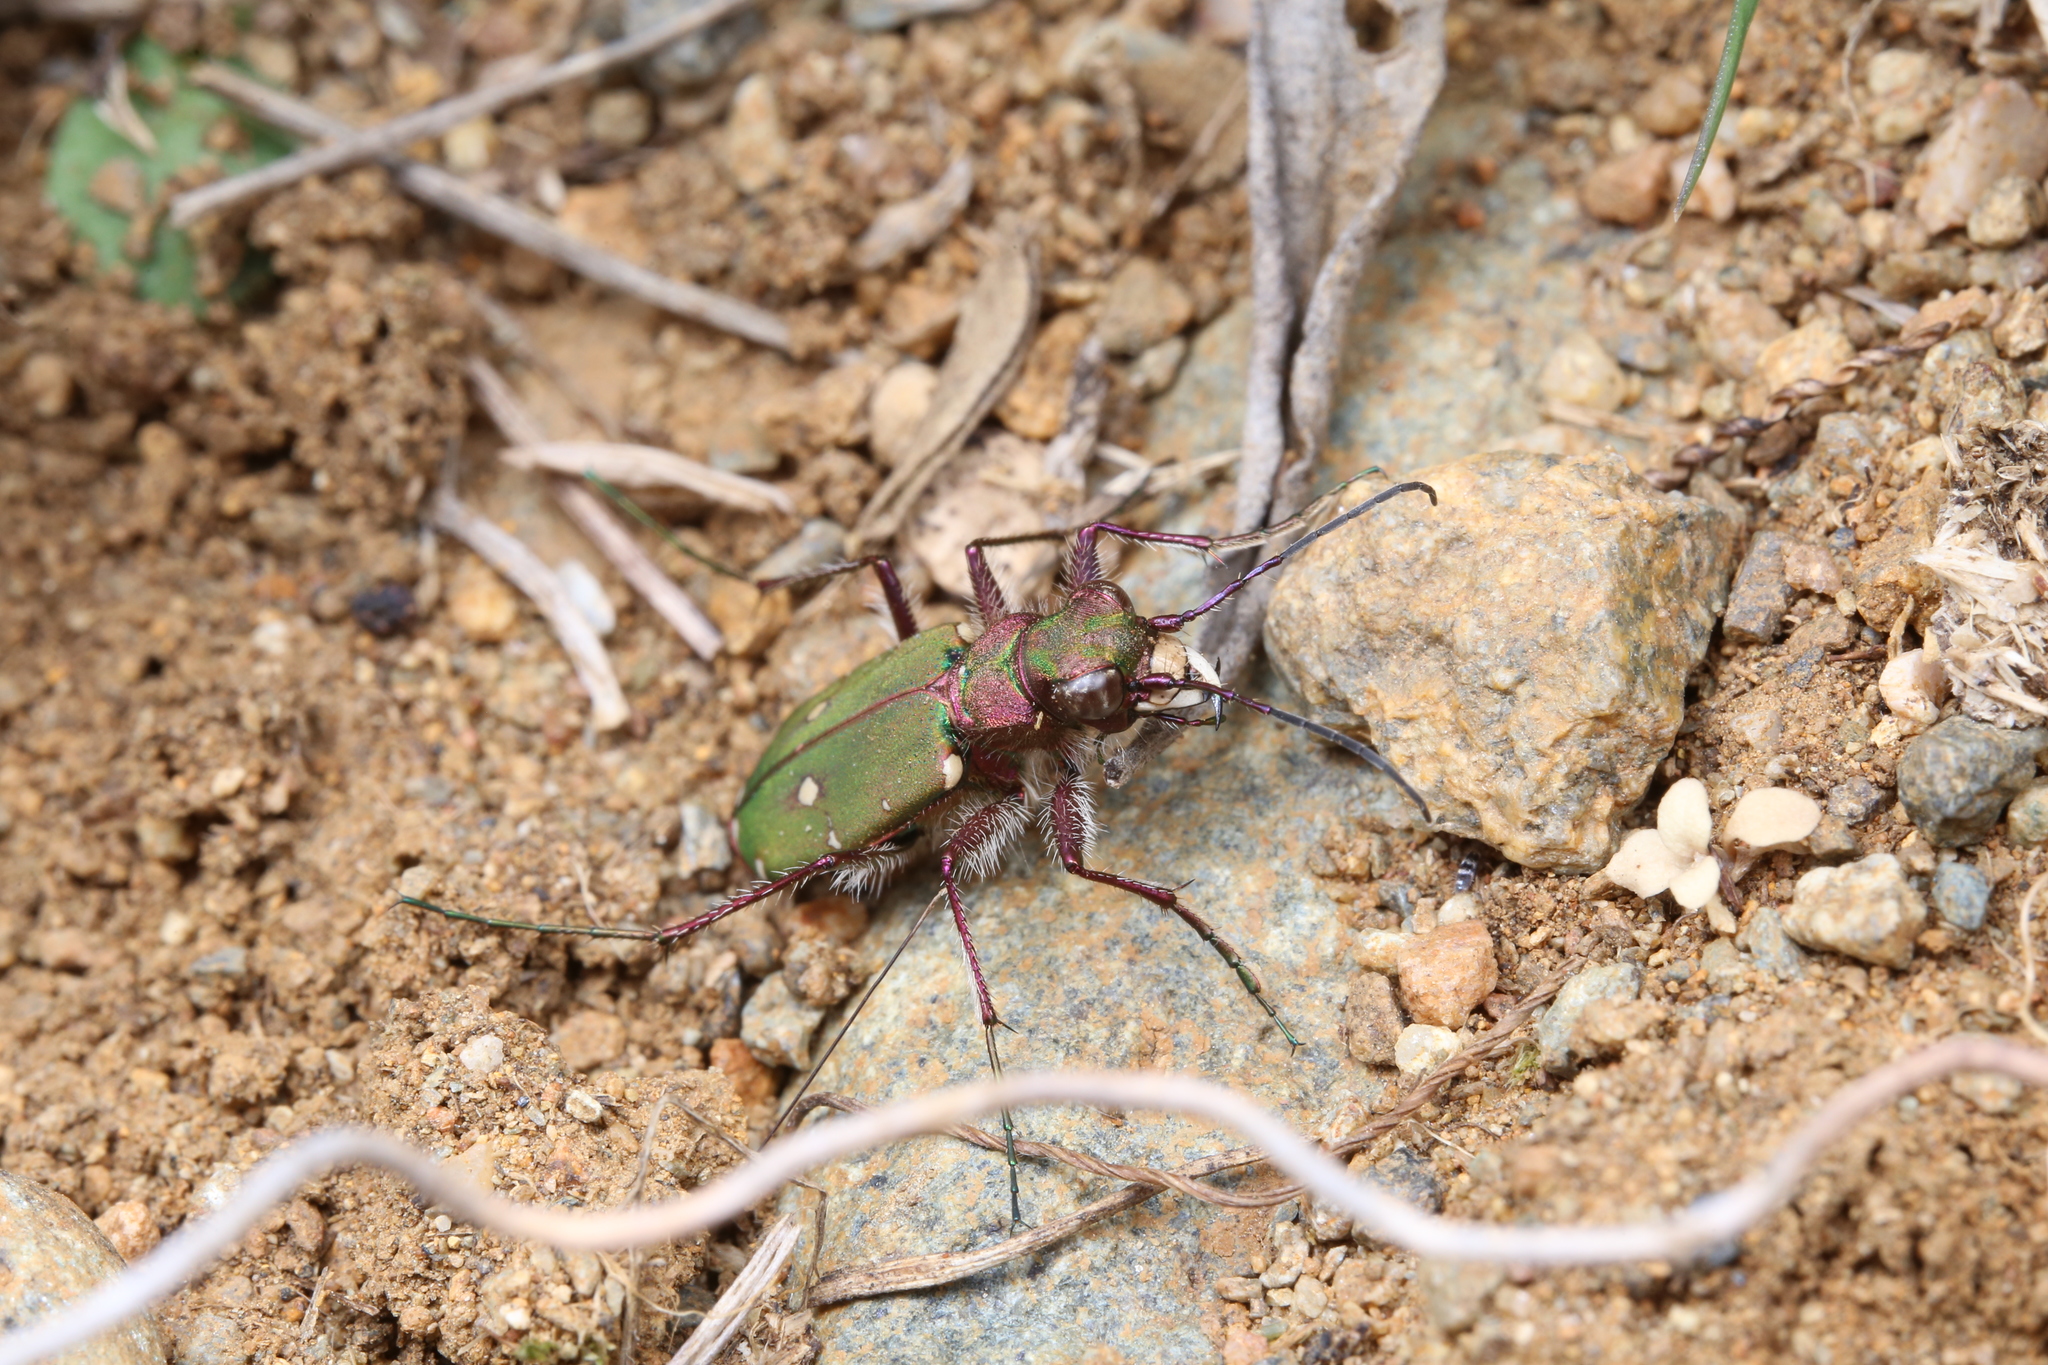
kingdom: Animalia
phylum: Arthropoda
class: Insecta
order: Coleoptera
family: Carabidae
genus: Cicindela
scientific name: Cicindela campestris
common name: Common tiger beetle
